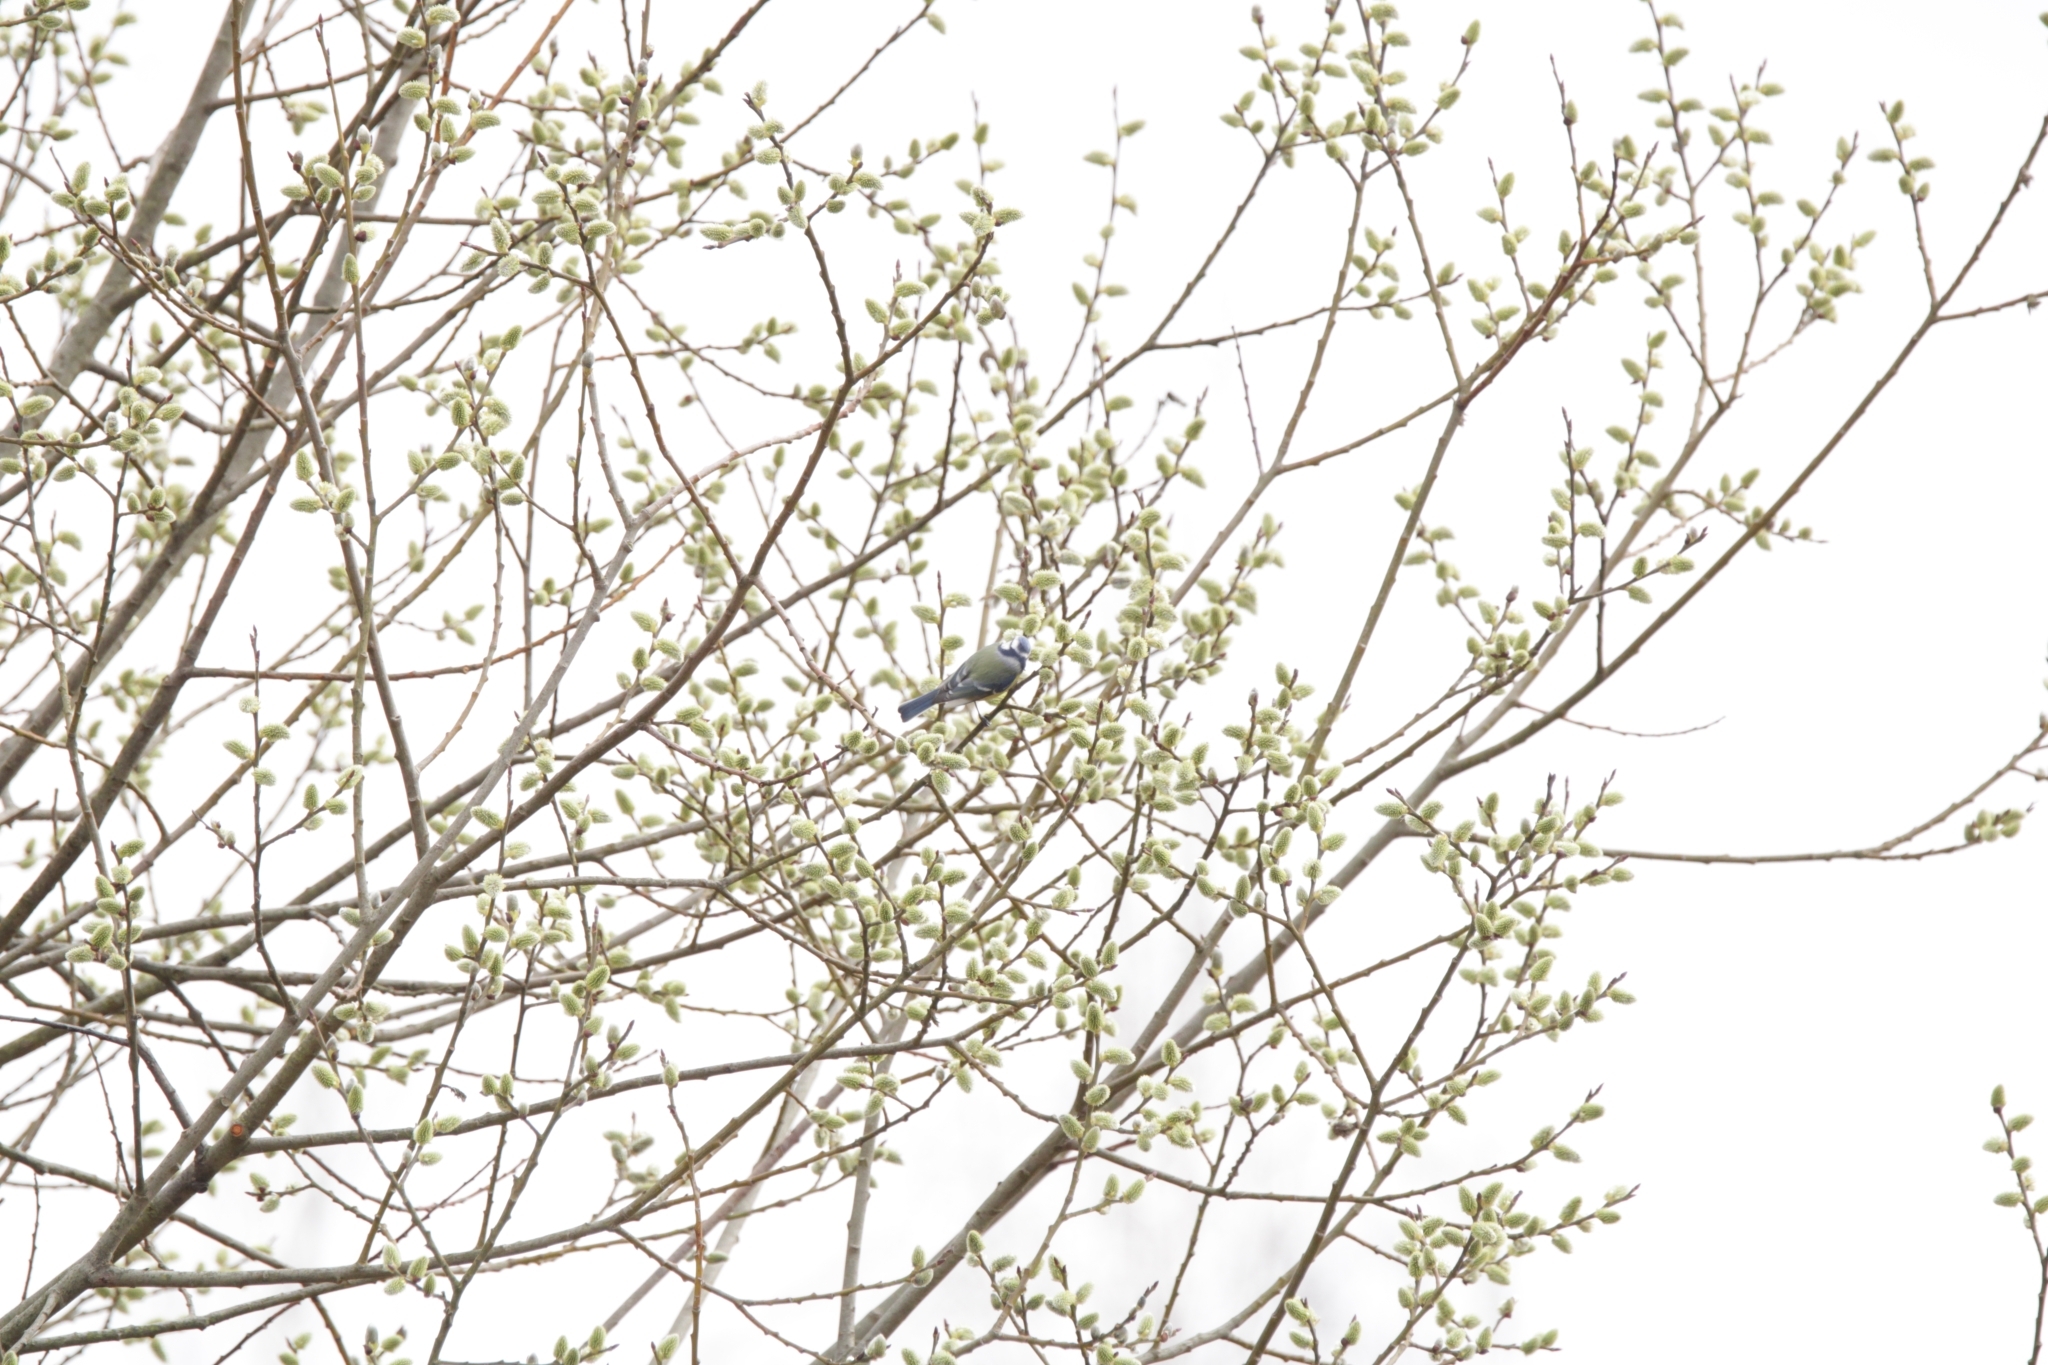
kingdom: Animalia
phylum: Chordata
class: Aves
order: Passeriformes
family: Paridae
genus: Cyanistes
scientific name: Cyanistes caeruleus
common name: Eurasian blue tit
